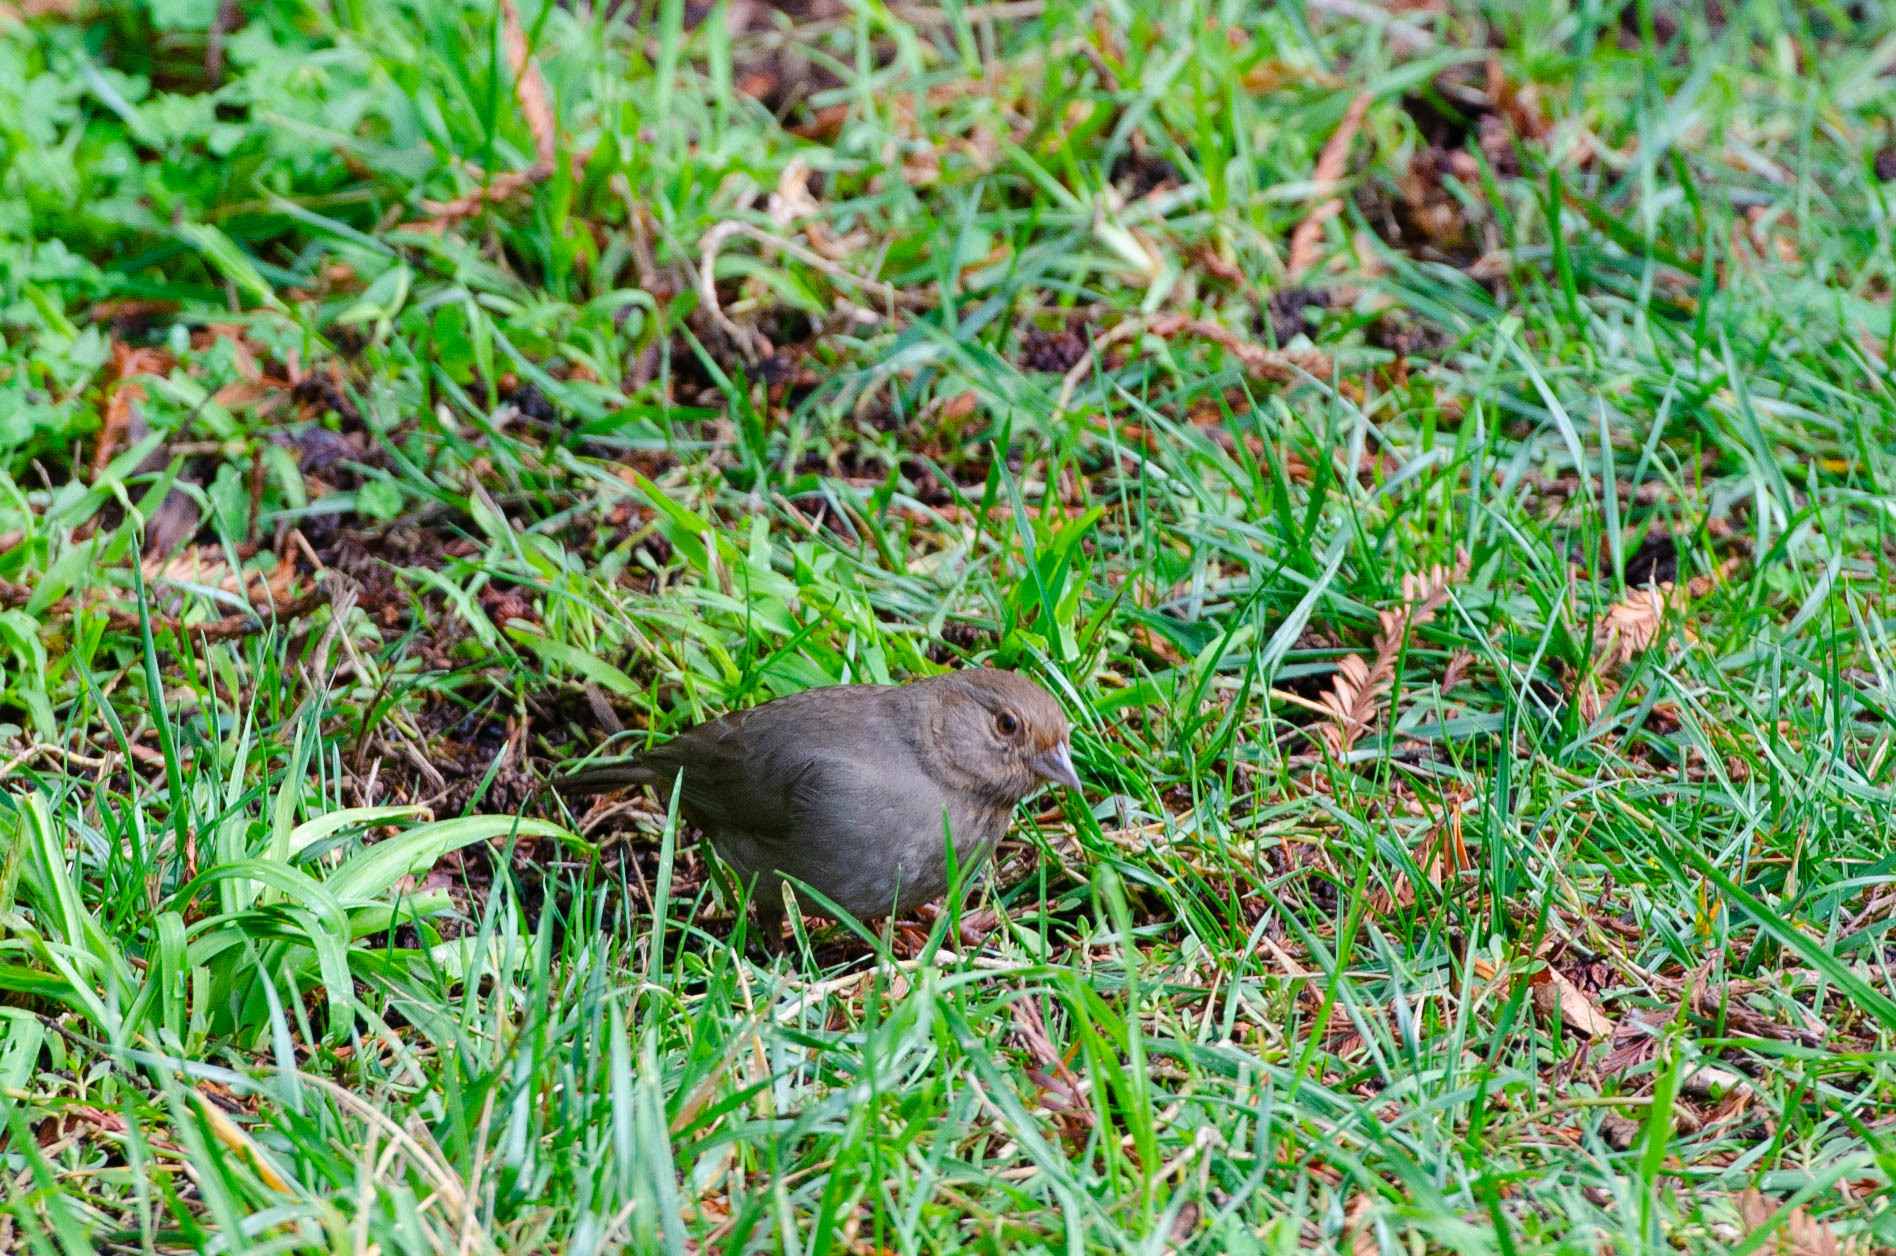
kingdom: Animalia
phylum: Chordata
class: Aves
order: Passeriformes
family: Passerellidae
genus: Melozone
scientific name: Melozone crissalis
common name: California towhee
